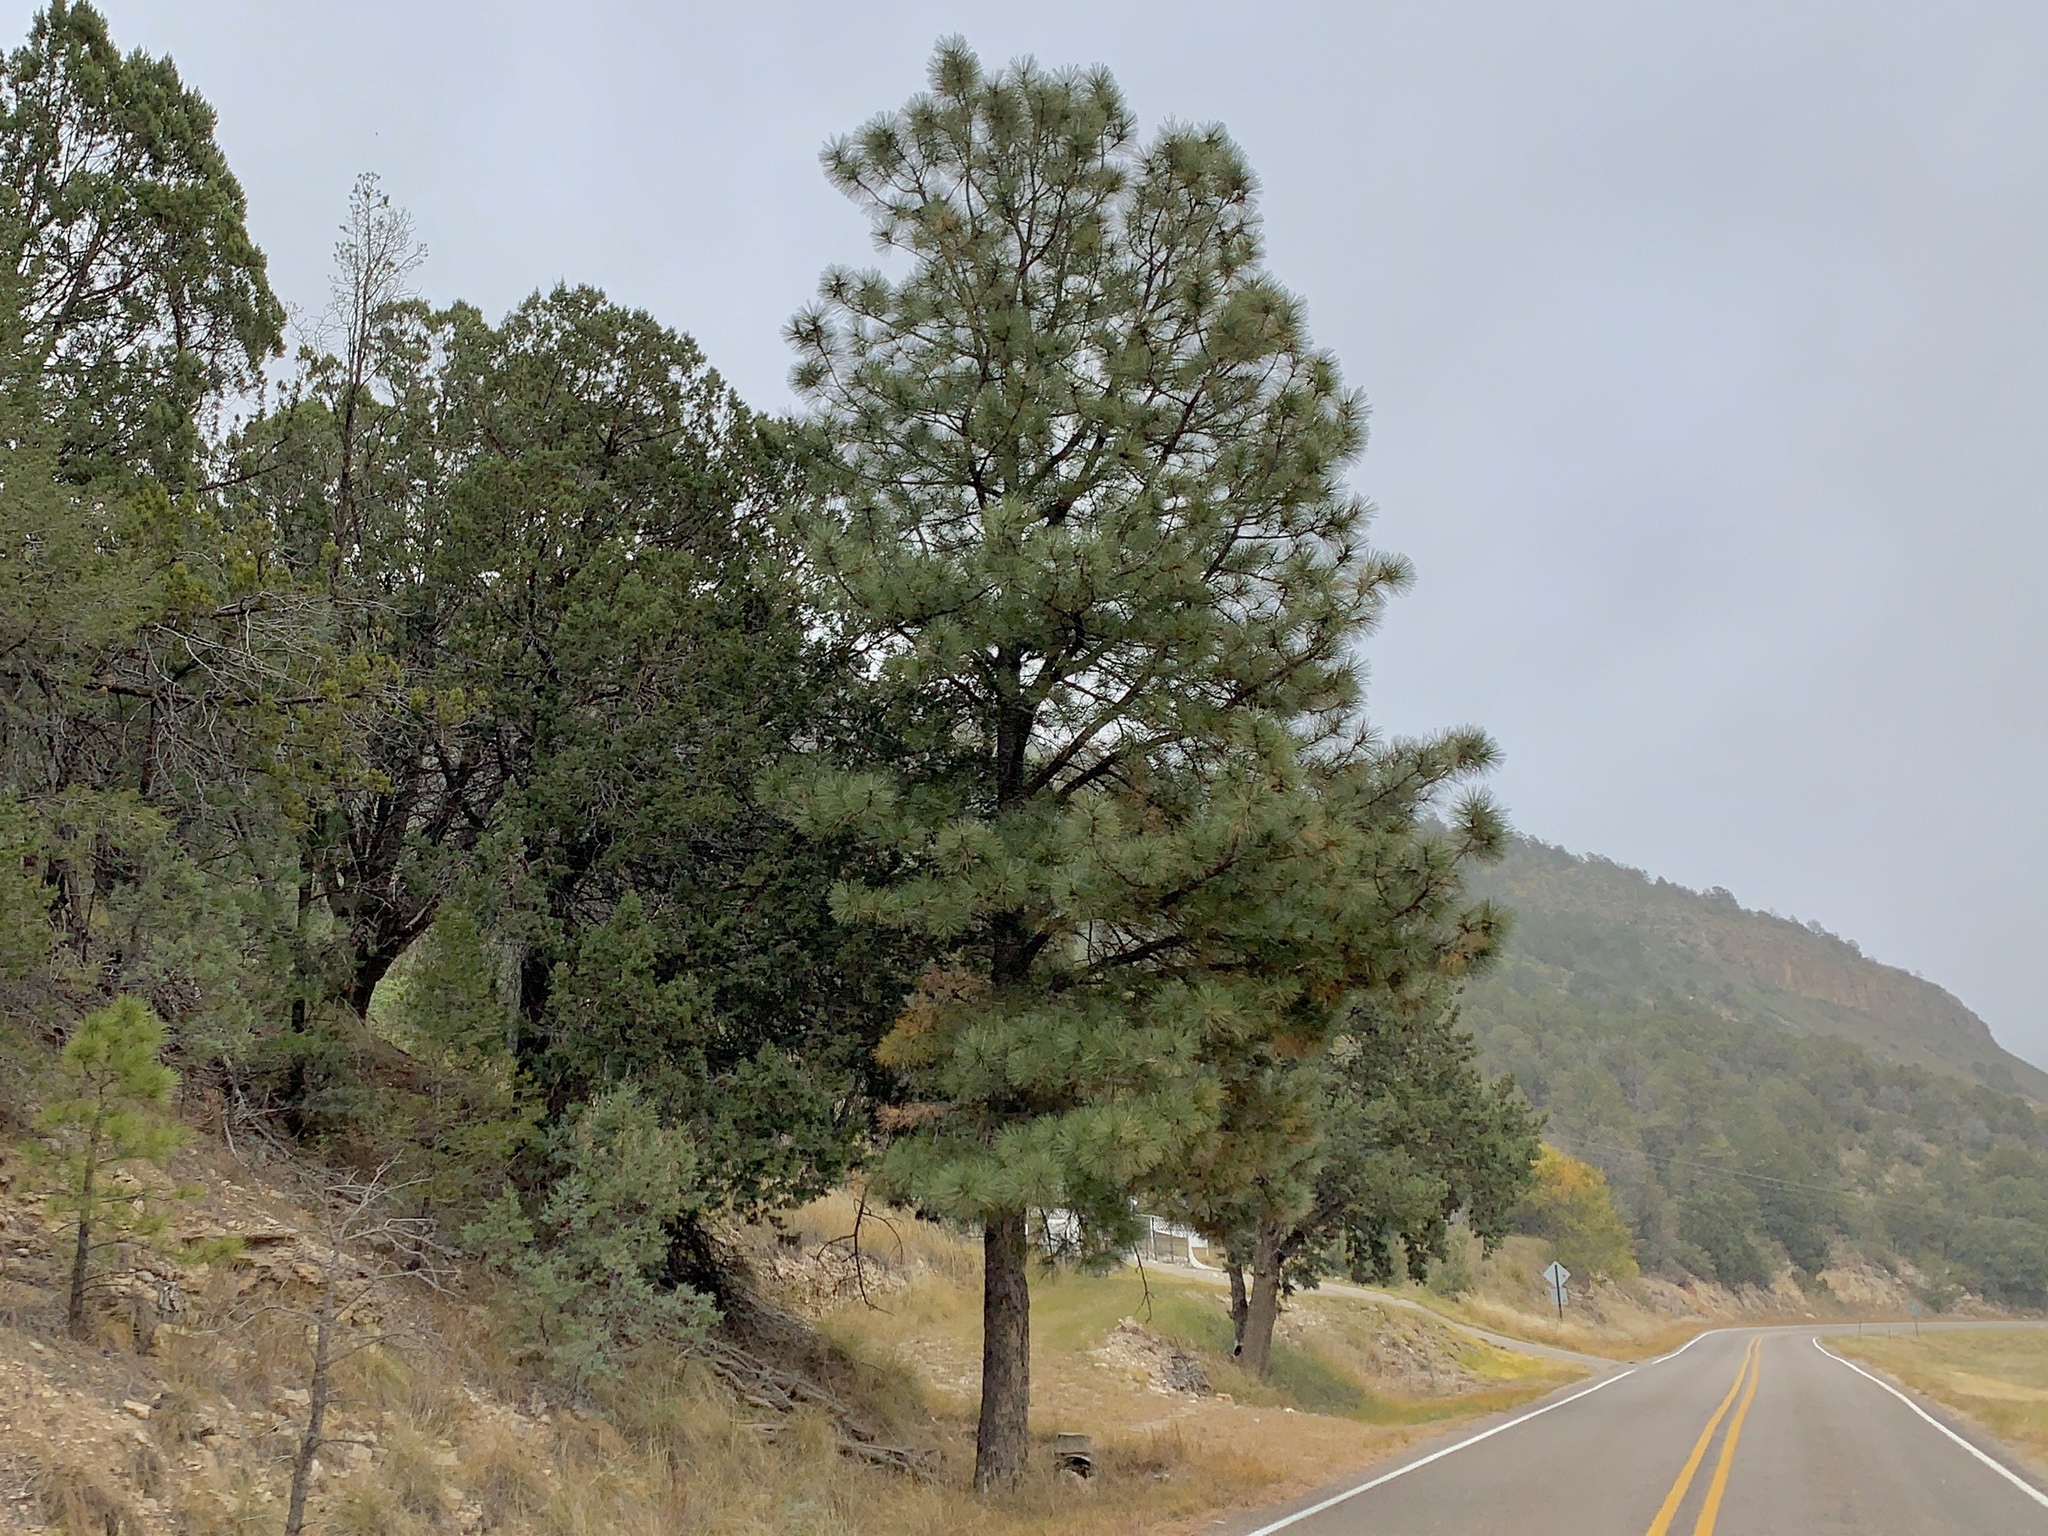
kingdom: Plantae
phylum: Tracheophyta
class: Pinopsida
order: Pinales
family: Pinaceae
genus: Pinus
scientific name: Pinus ponderosa
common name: Western yellow-pine
